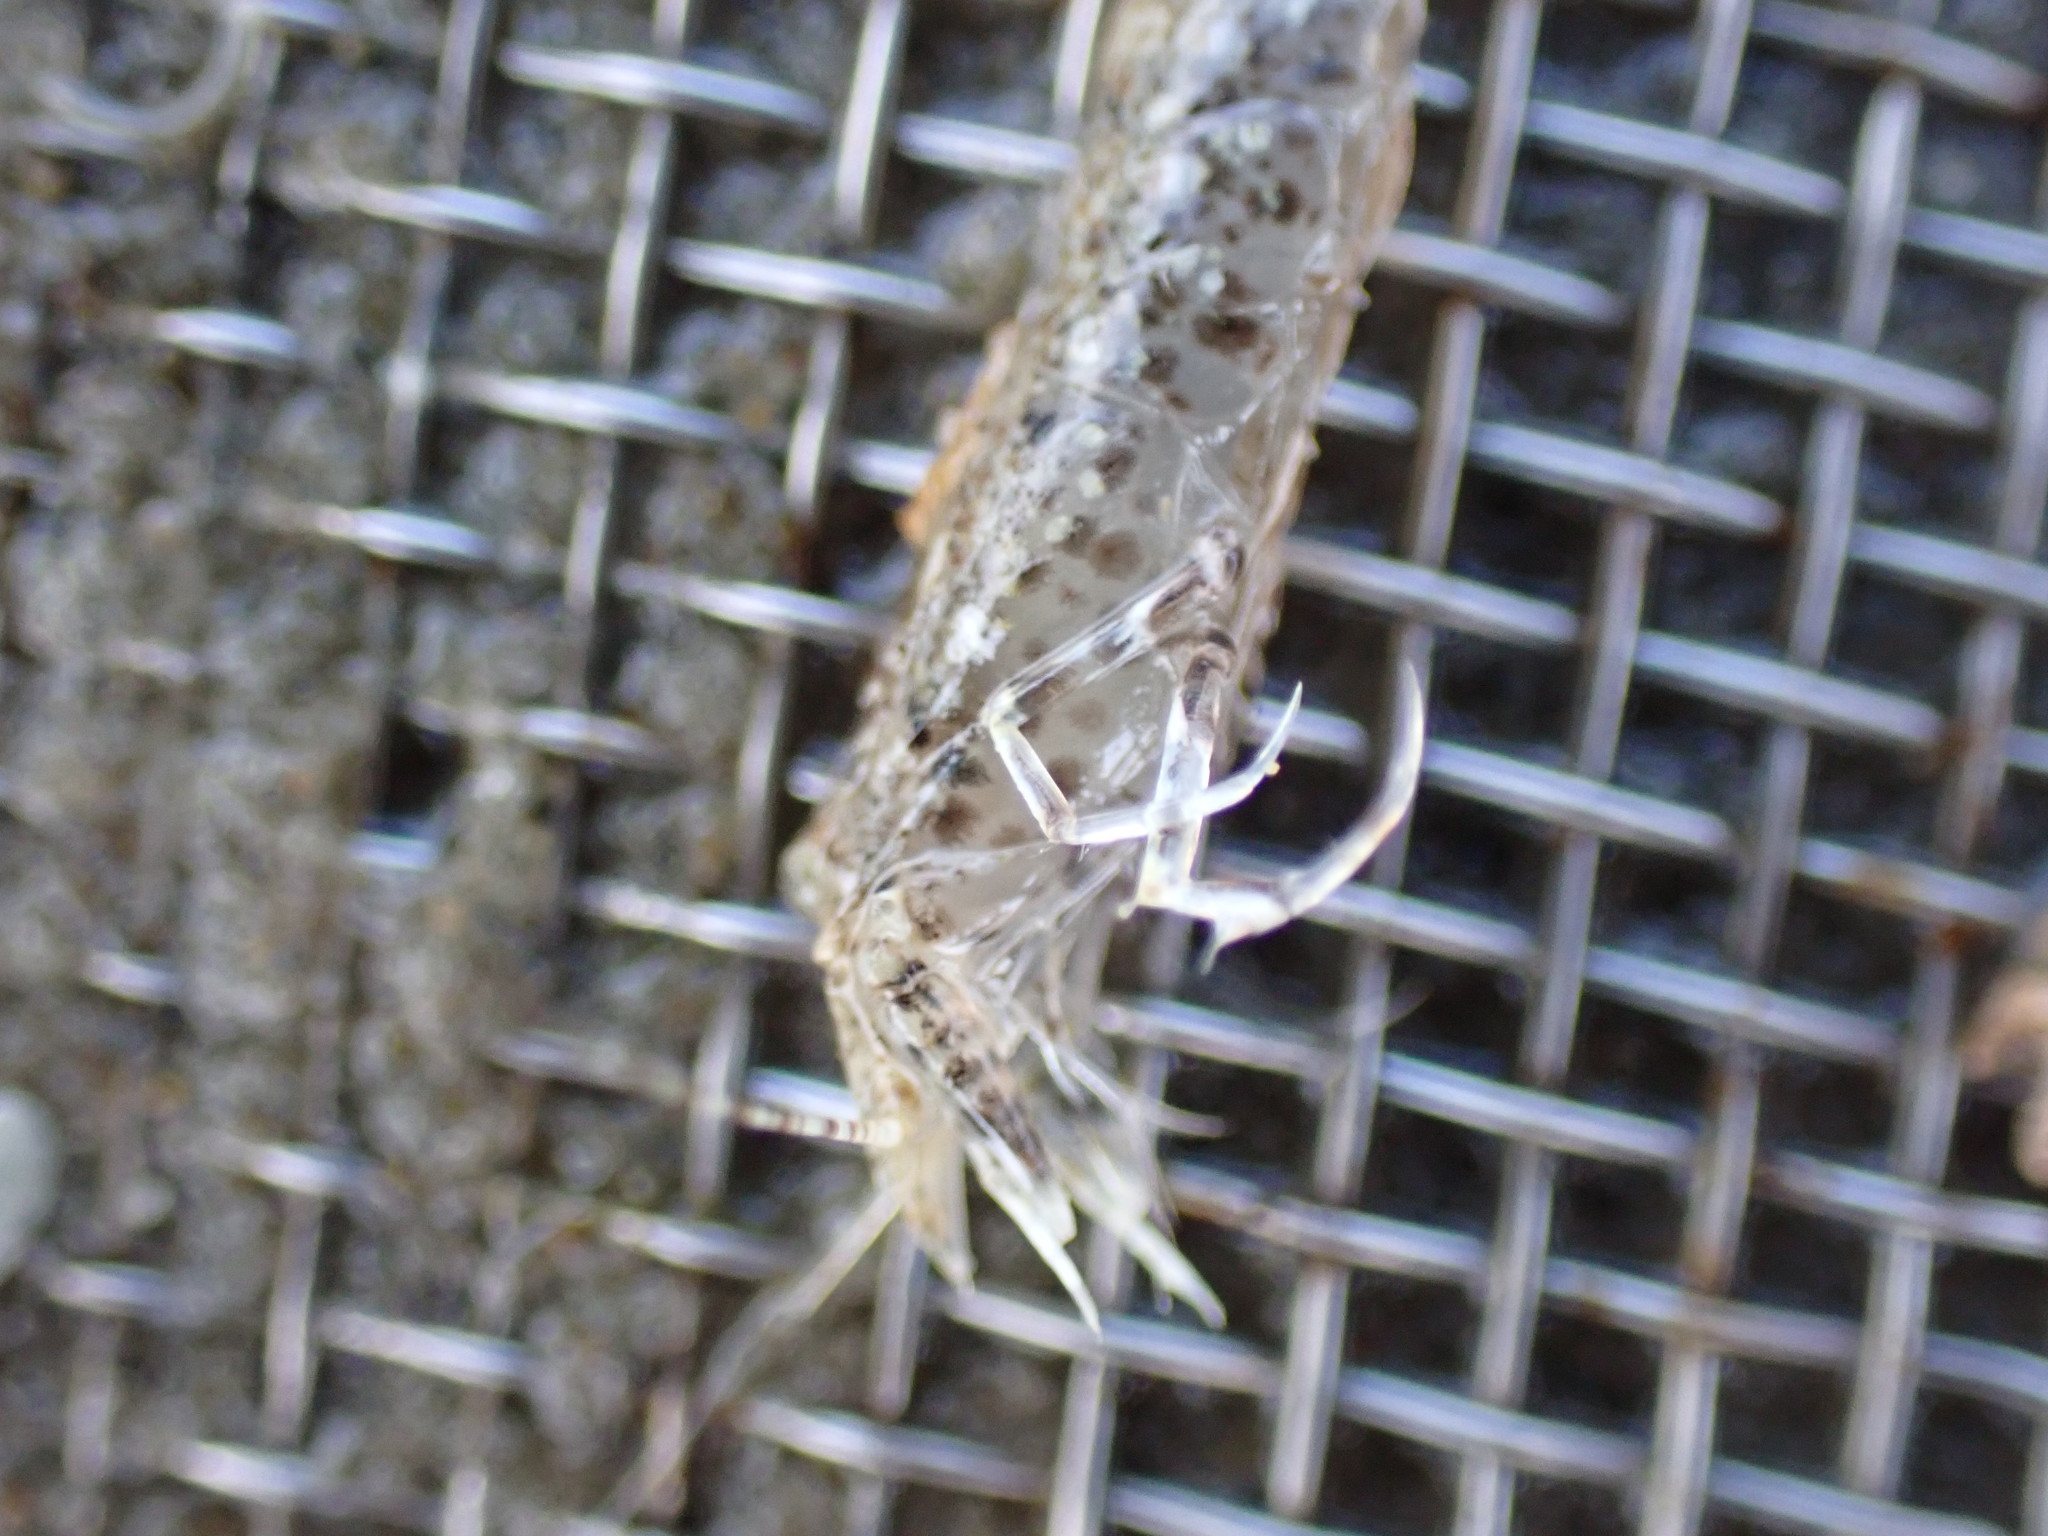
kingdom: Animalia
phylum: Arthropoda
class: Malacostraca
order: Decapoda
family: Crangonidae
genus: Philocheras
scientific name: Philocheras australis
